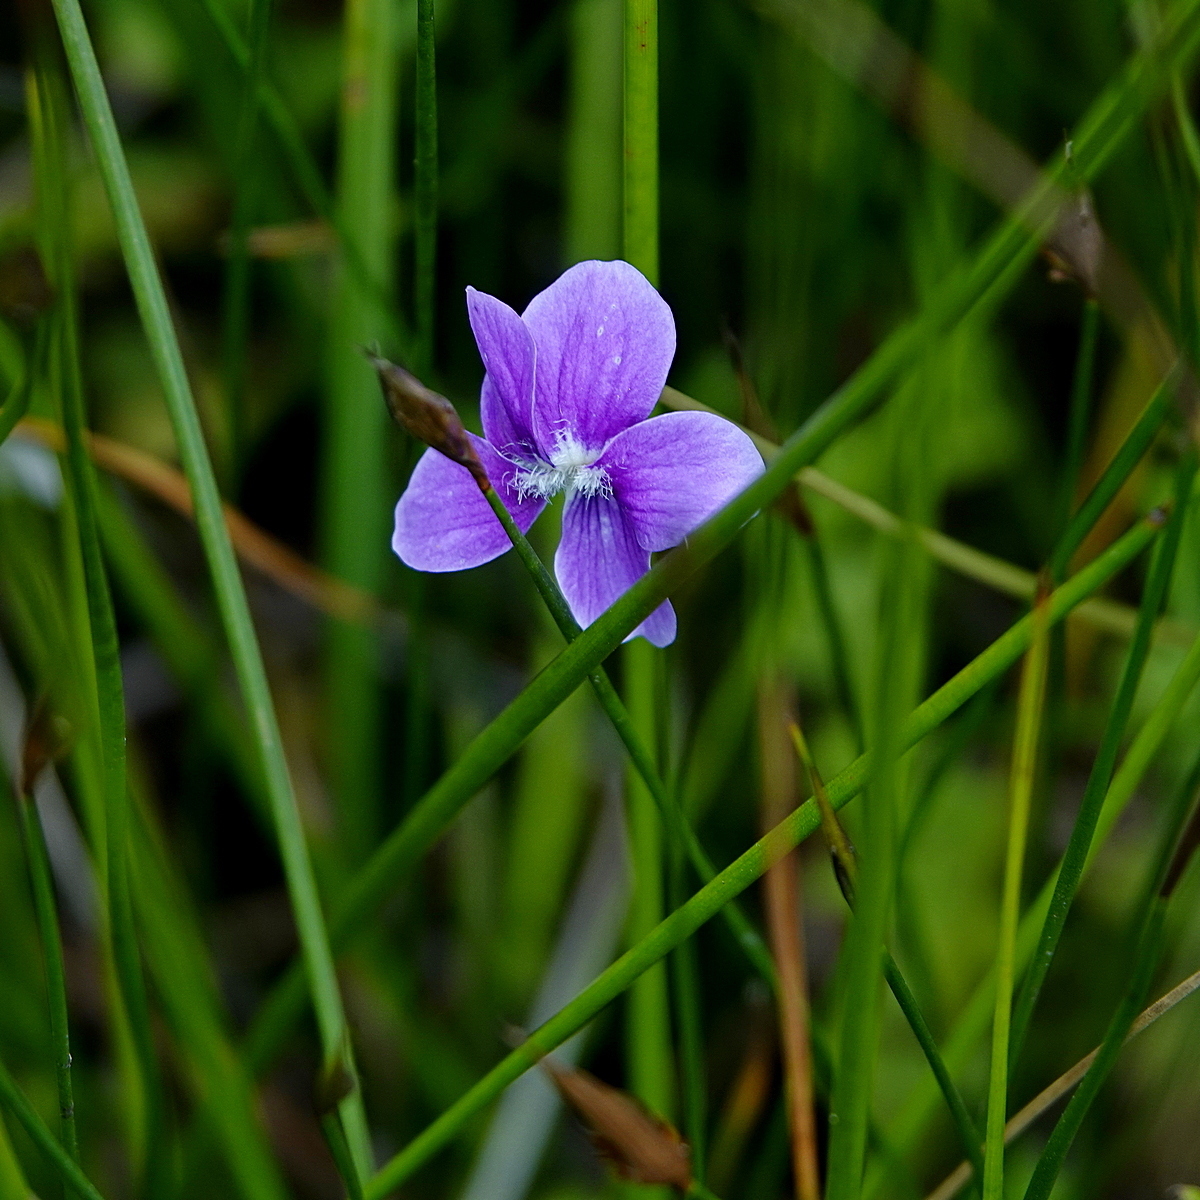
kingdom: Plantae
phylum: Tracheophyta
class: Magnoliopsida
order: Malpighiales
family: Violaceae
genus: Viola
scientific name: Viola betonicifolia
